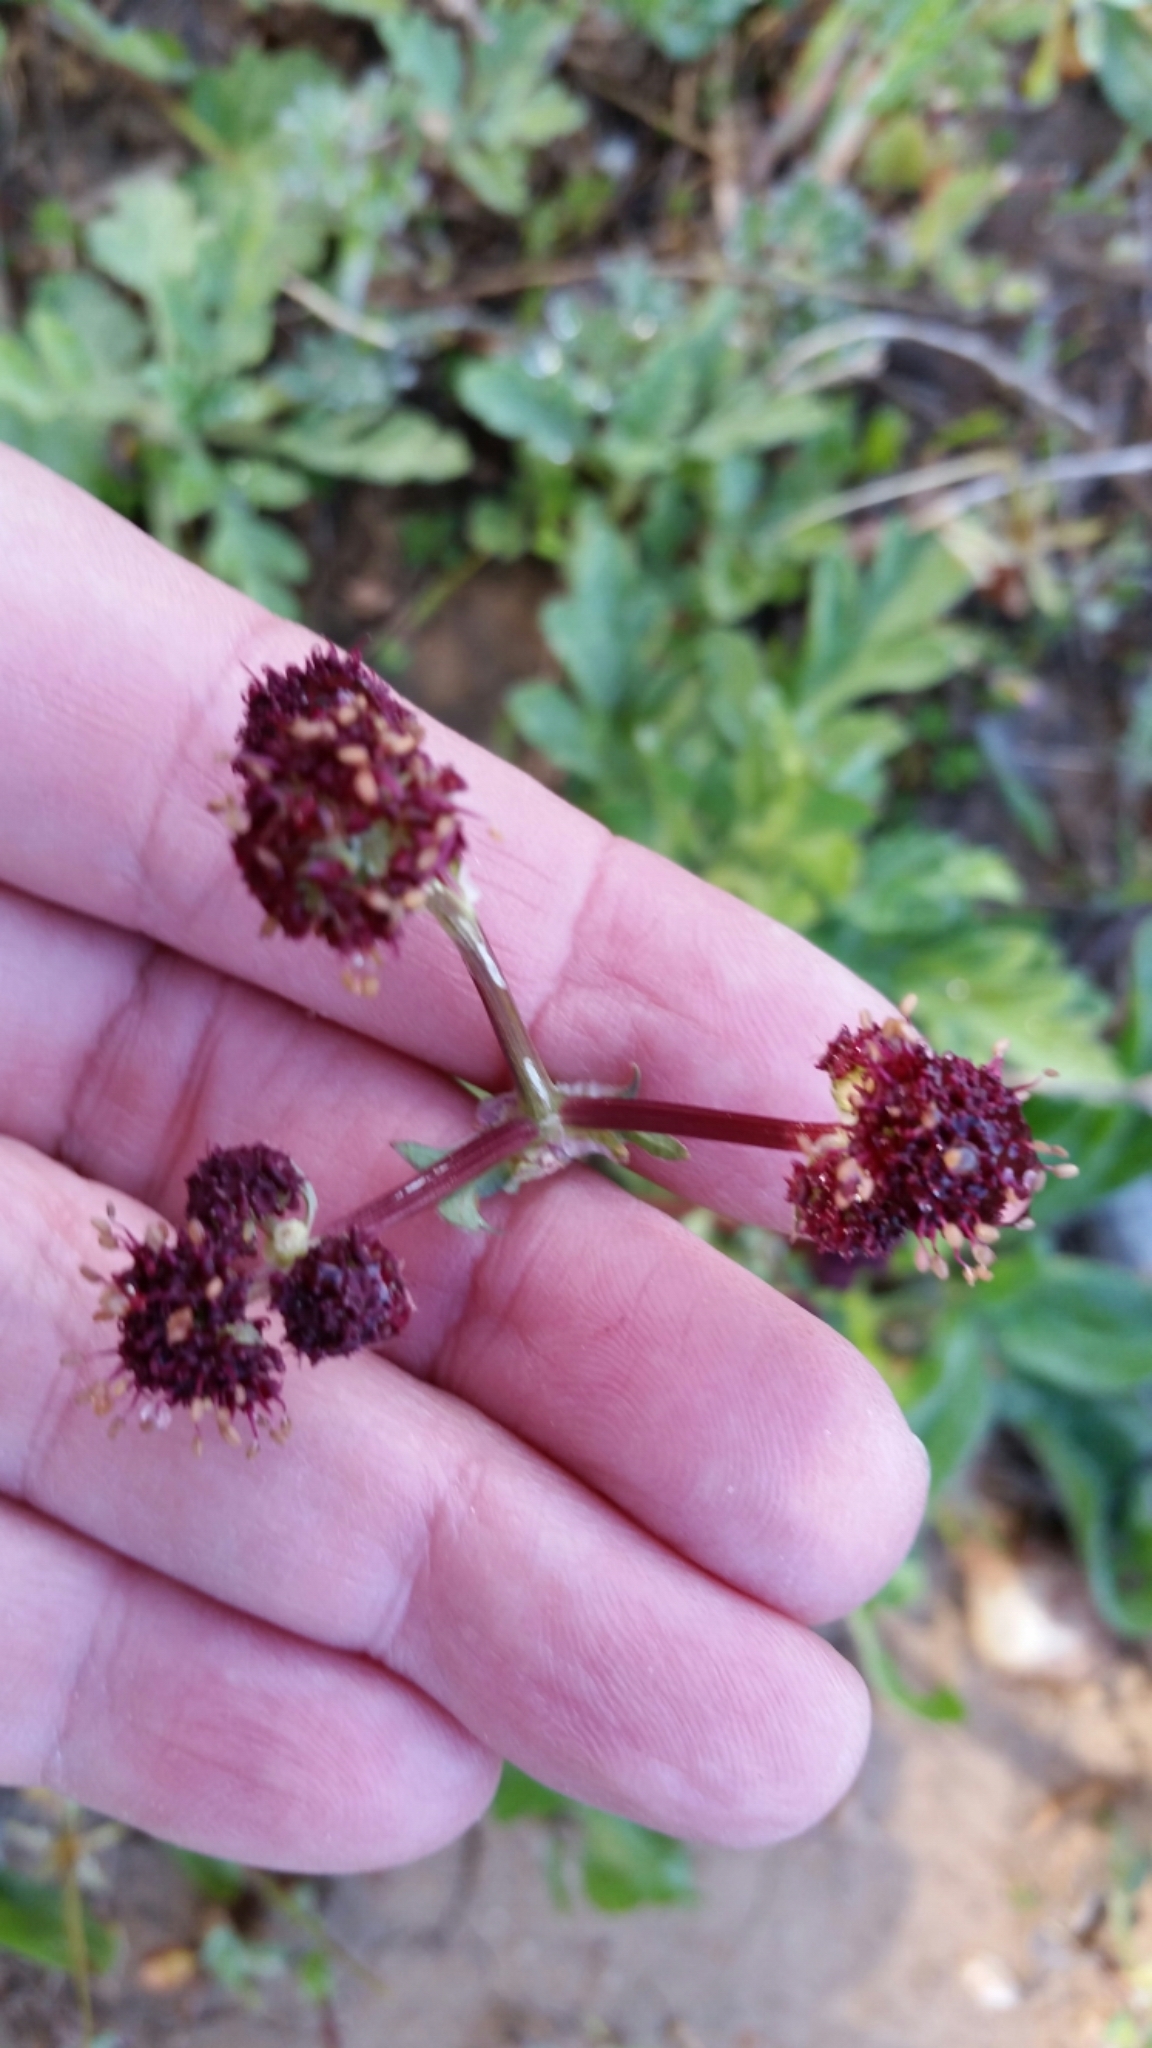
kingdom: Plantae
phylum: Tracheophyta
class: Magnoliopsida
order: Apiales
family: Apiaceae
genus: Sanicula
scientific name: Sanicula bipinnatifida
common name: Shoe-buttons
